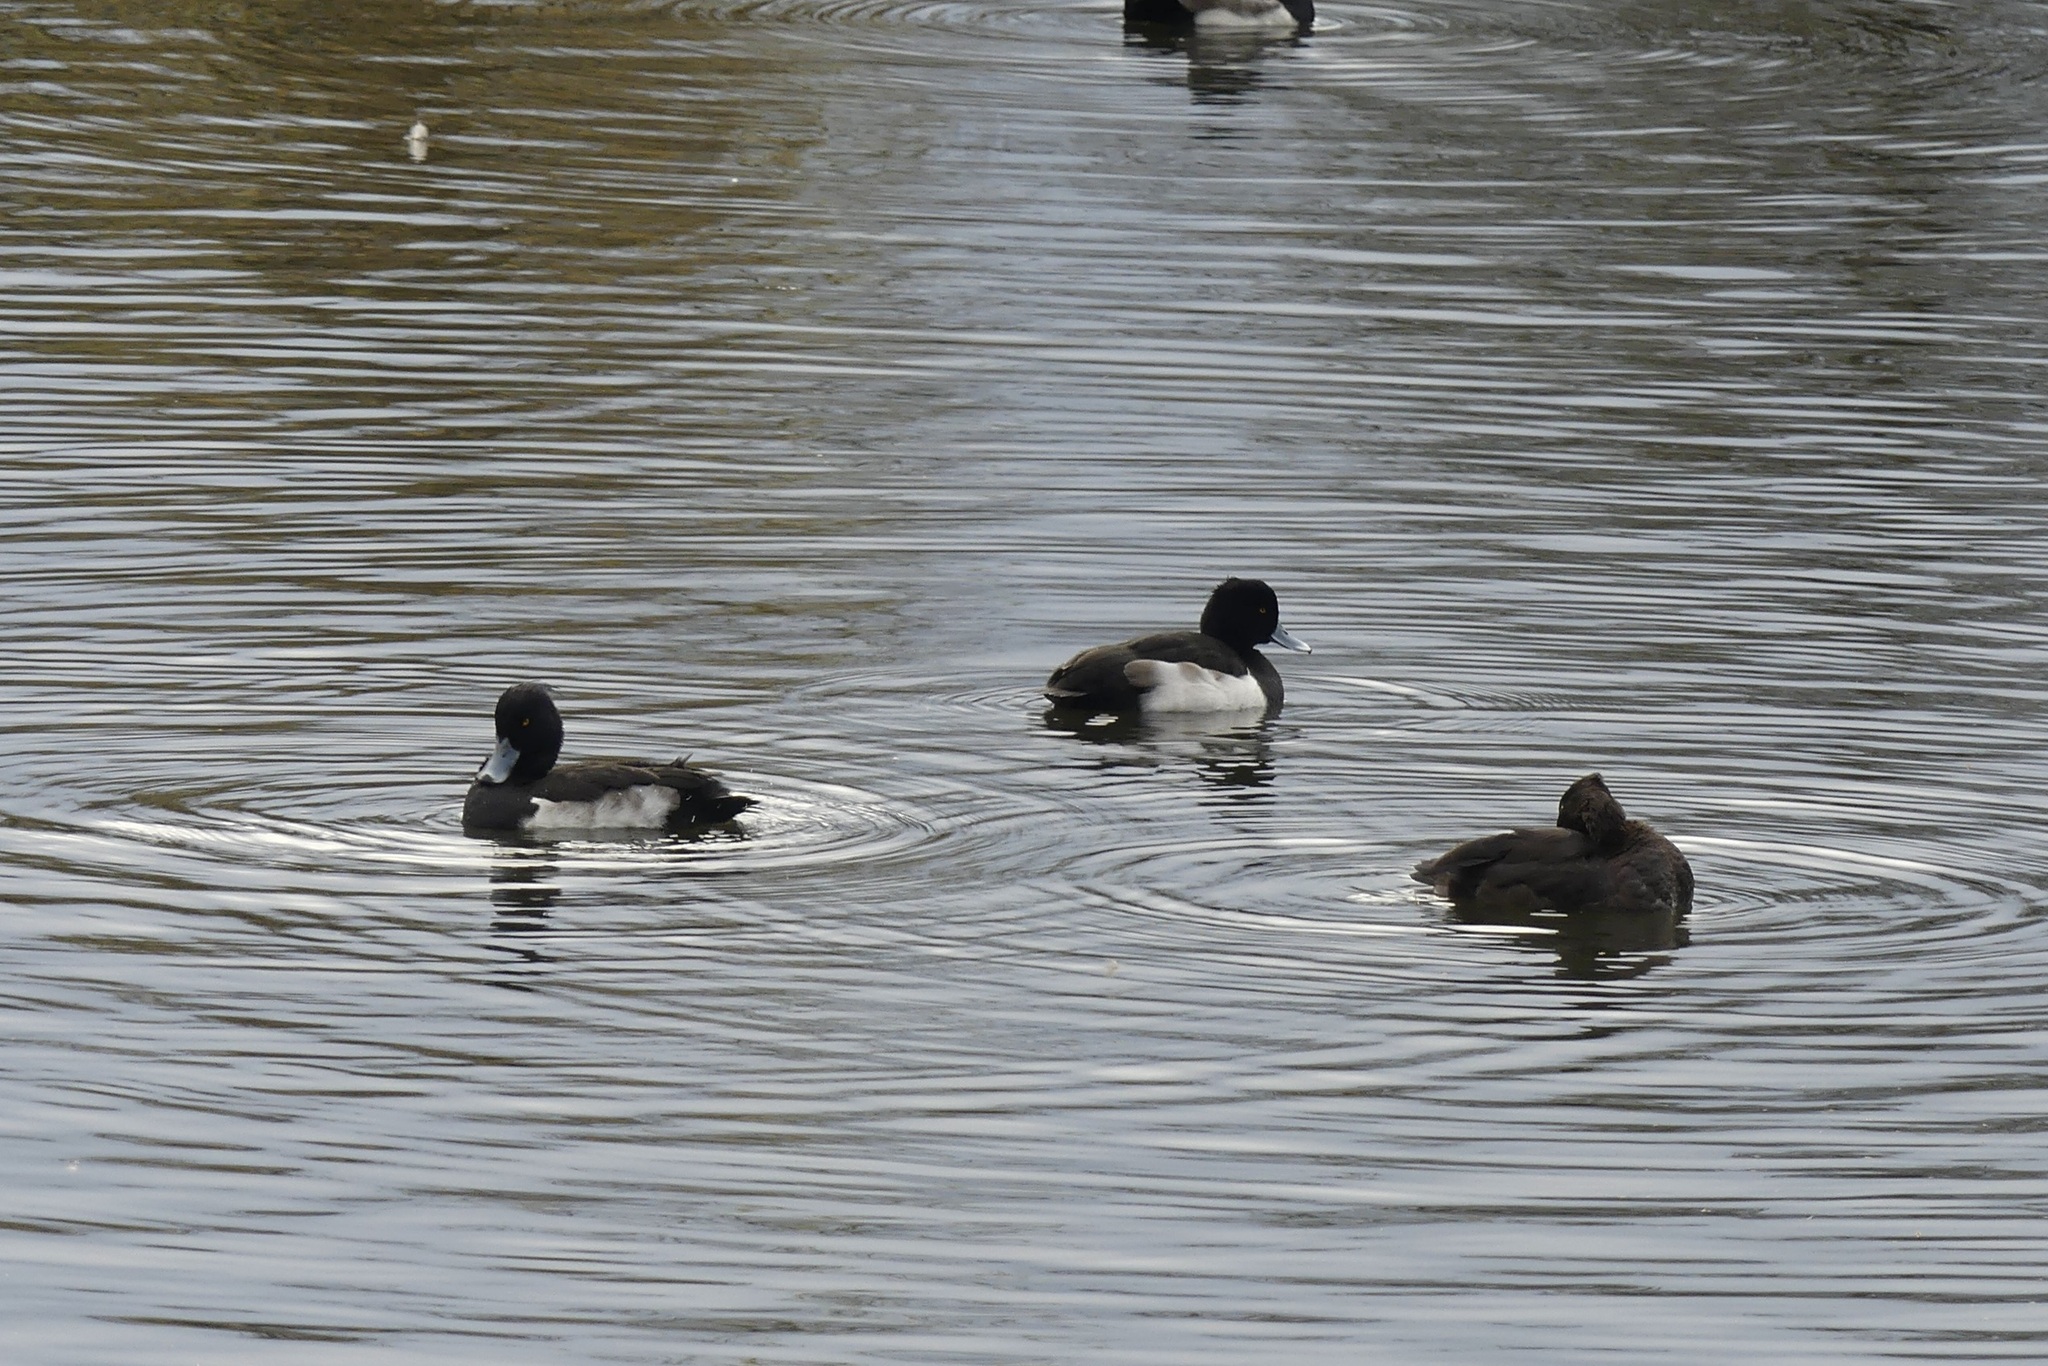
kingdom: Animalia
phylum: Chordata
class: Aves
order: Anseriformes
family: Anatidae
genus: Aythya
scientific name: Aythya fuligula
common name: Tufted duck
